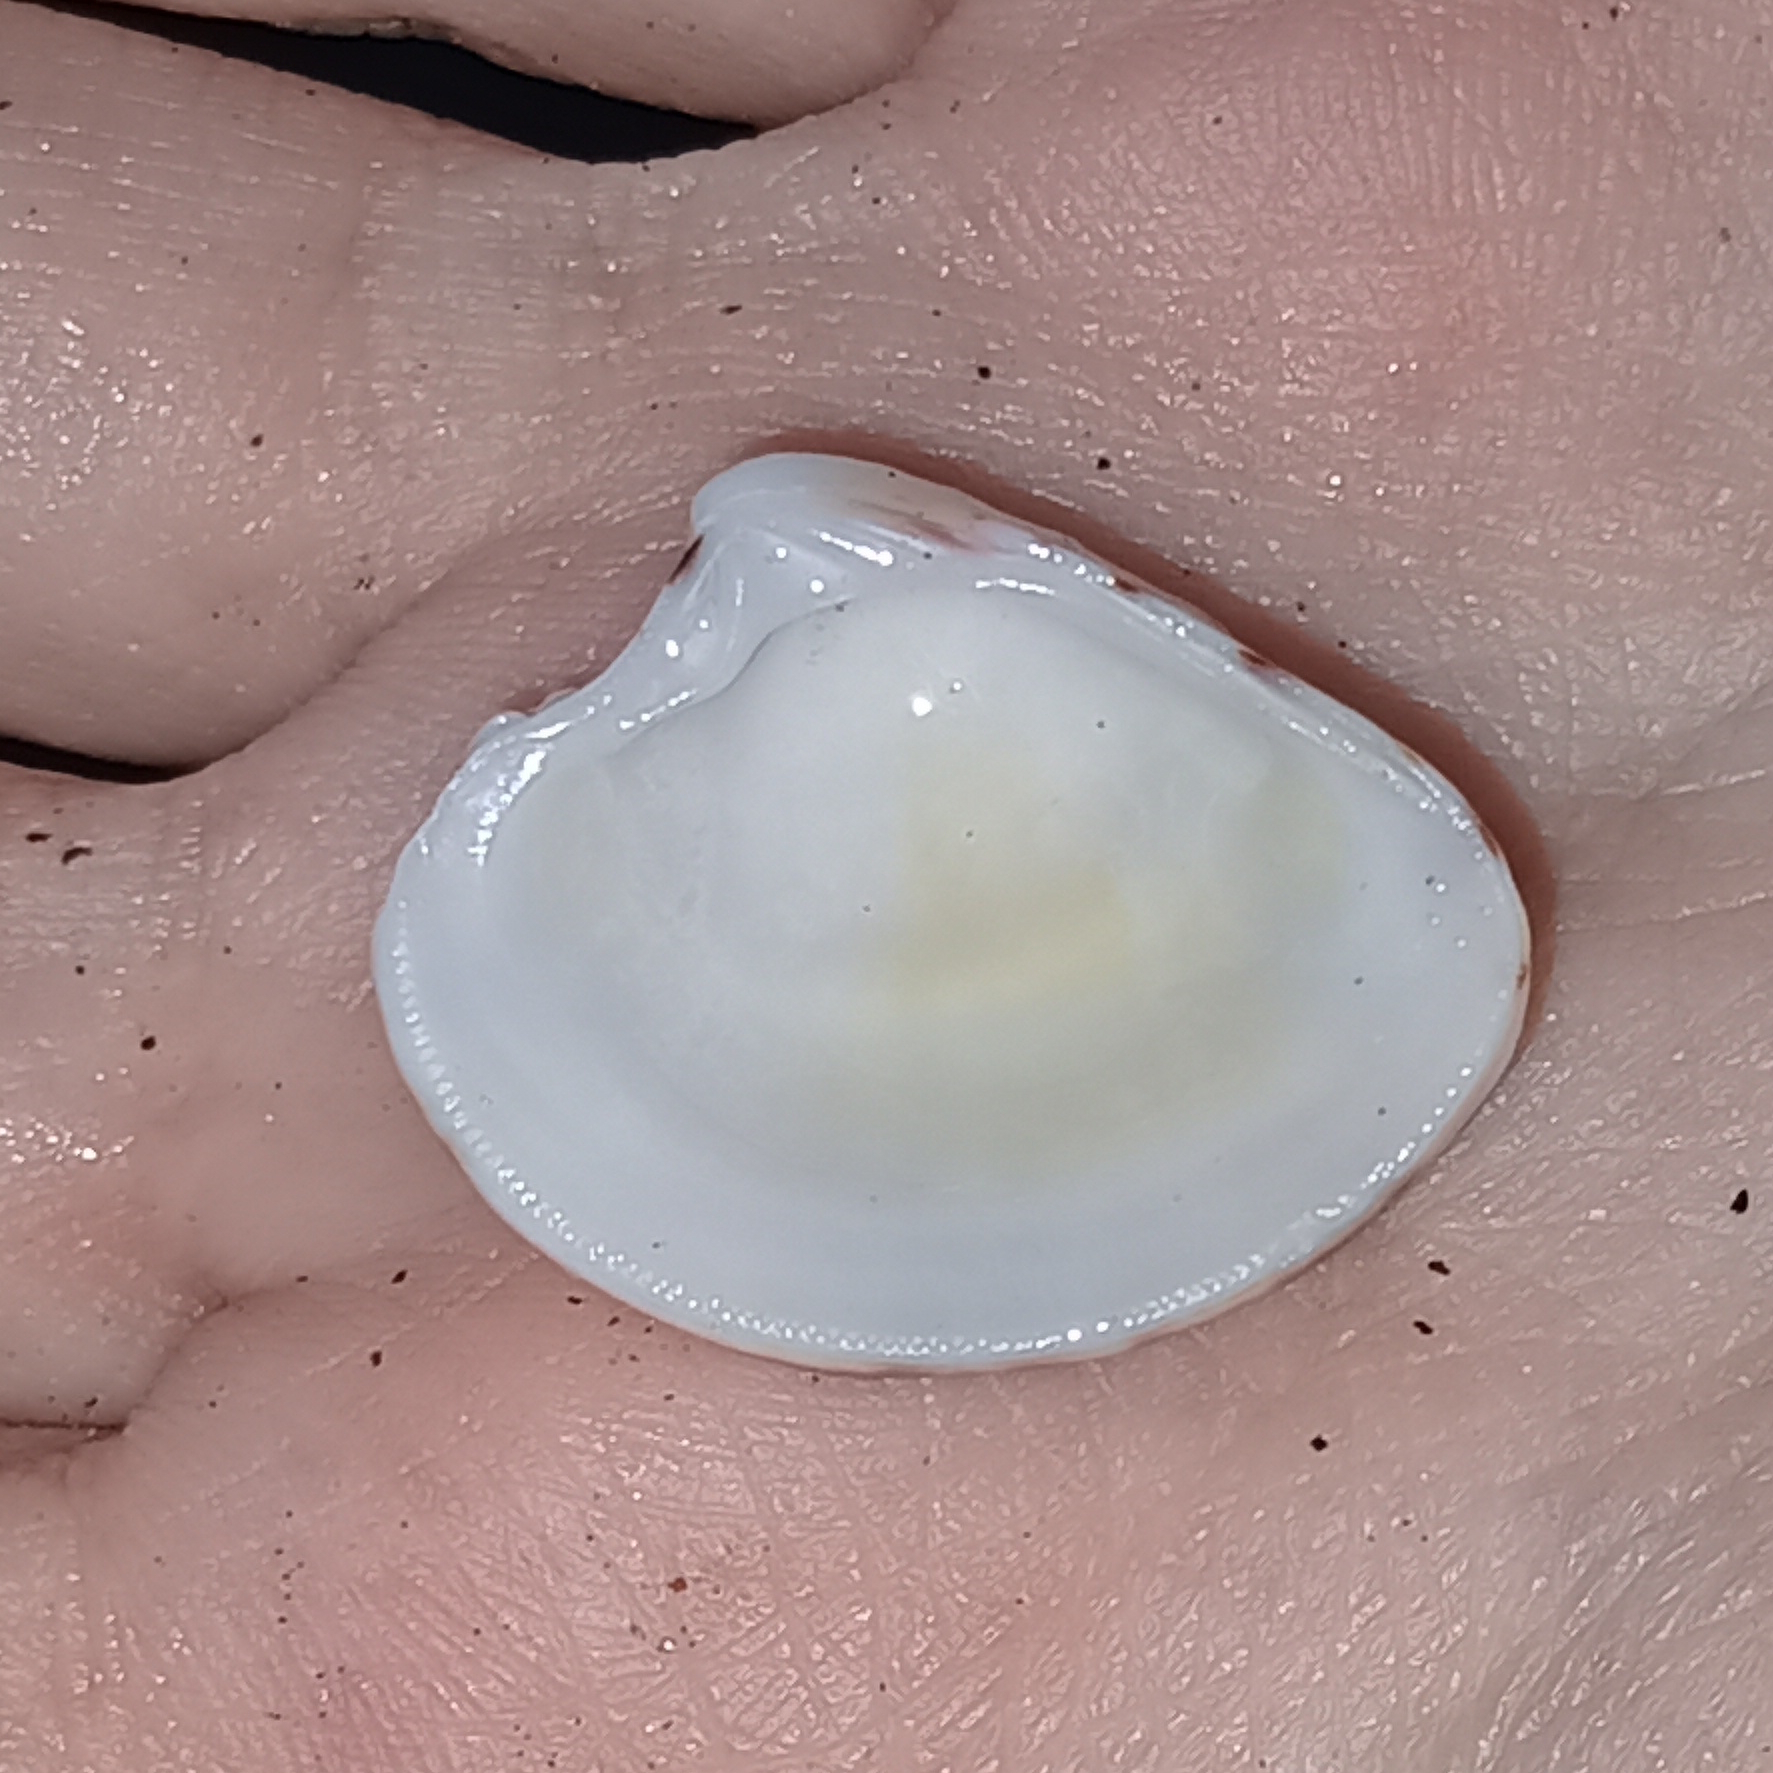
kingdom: Animalia
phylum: Mollusca
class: Bivalvia
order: Venerida
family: Veneridae
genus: Lirophora
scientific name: Lirophora paphia
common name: King venus
